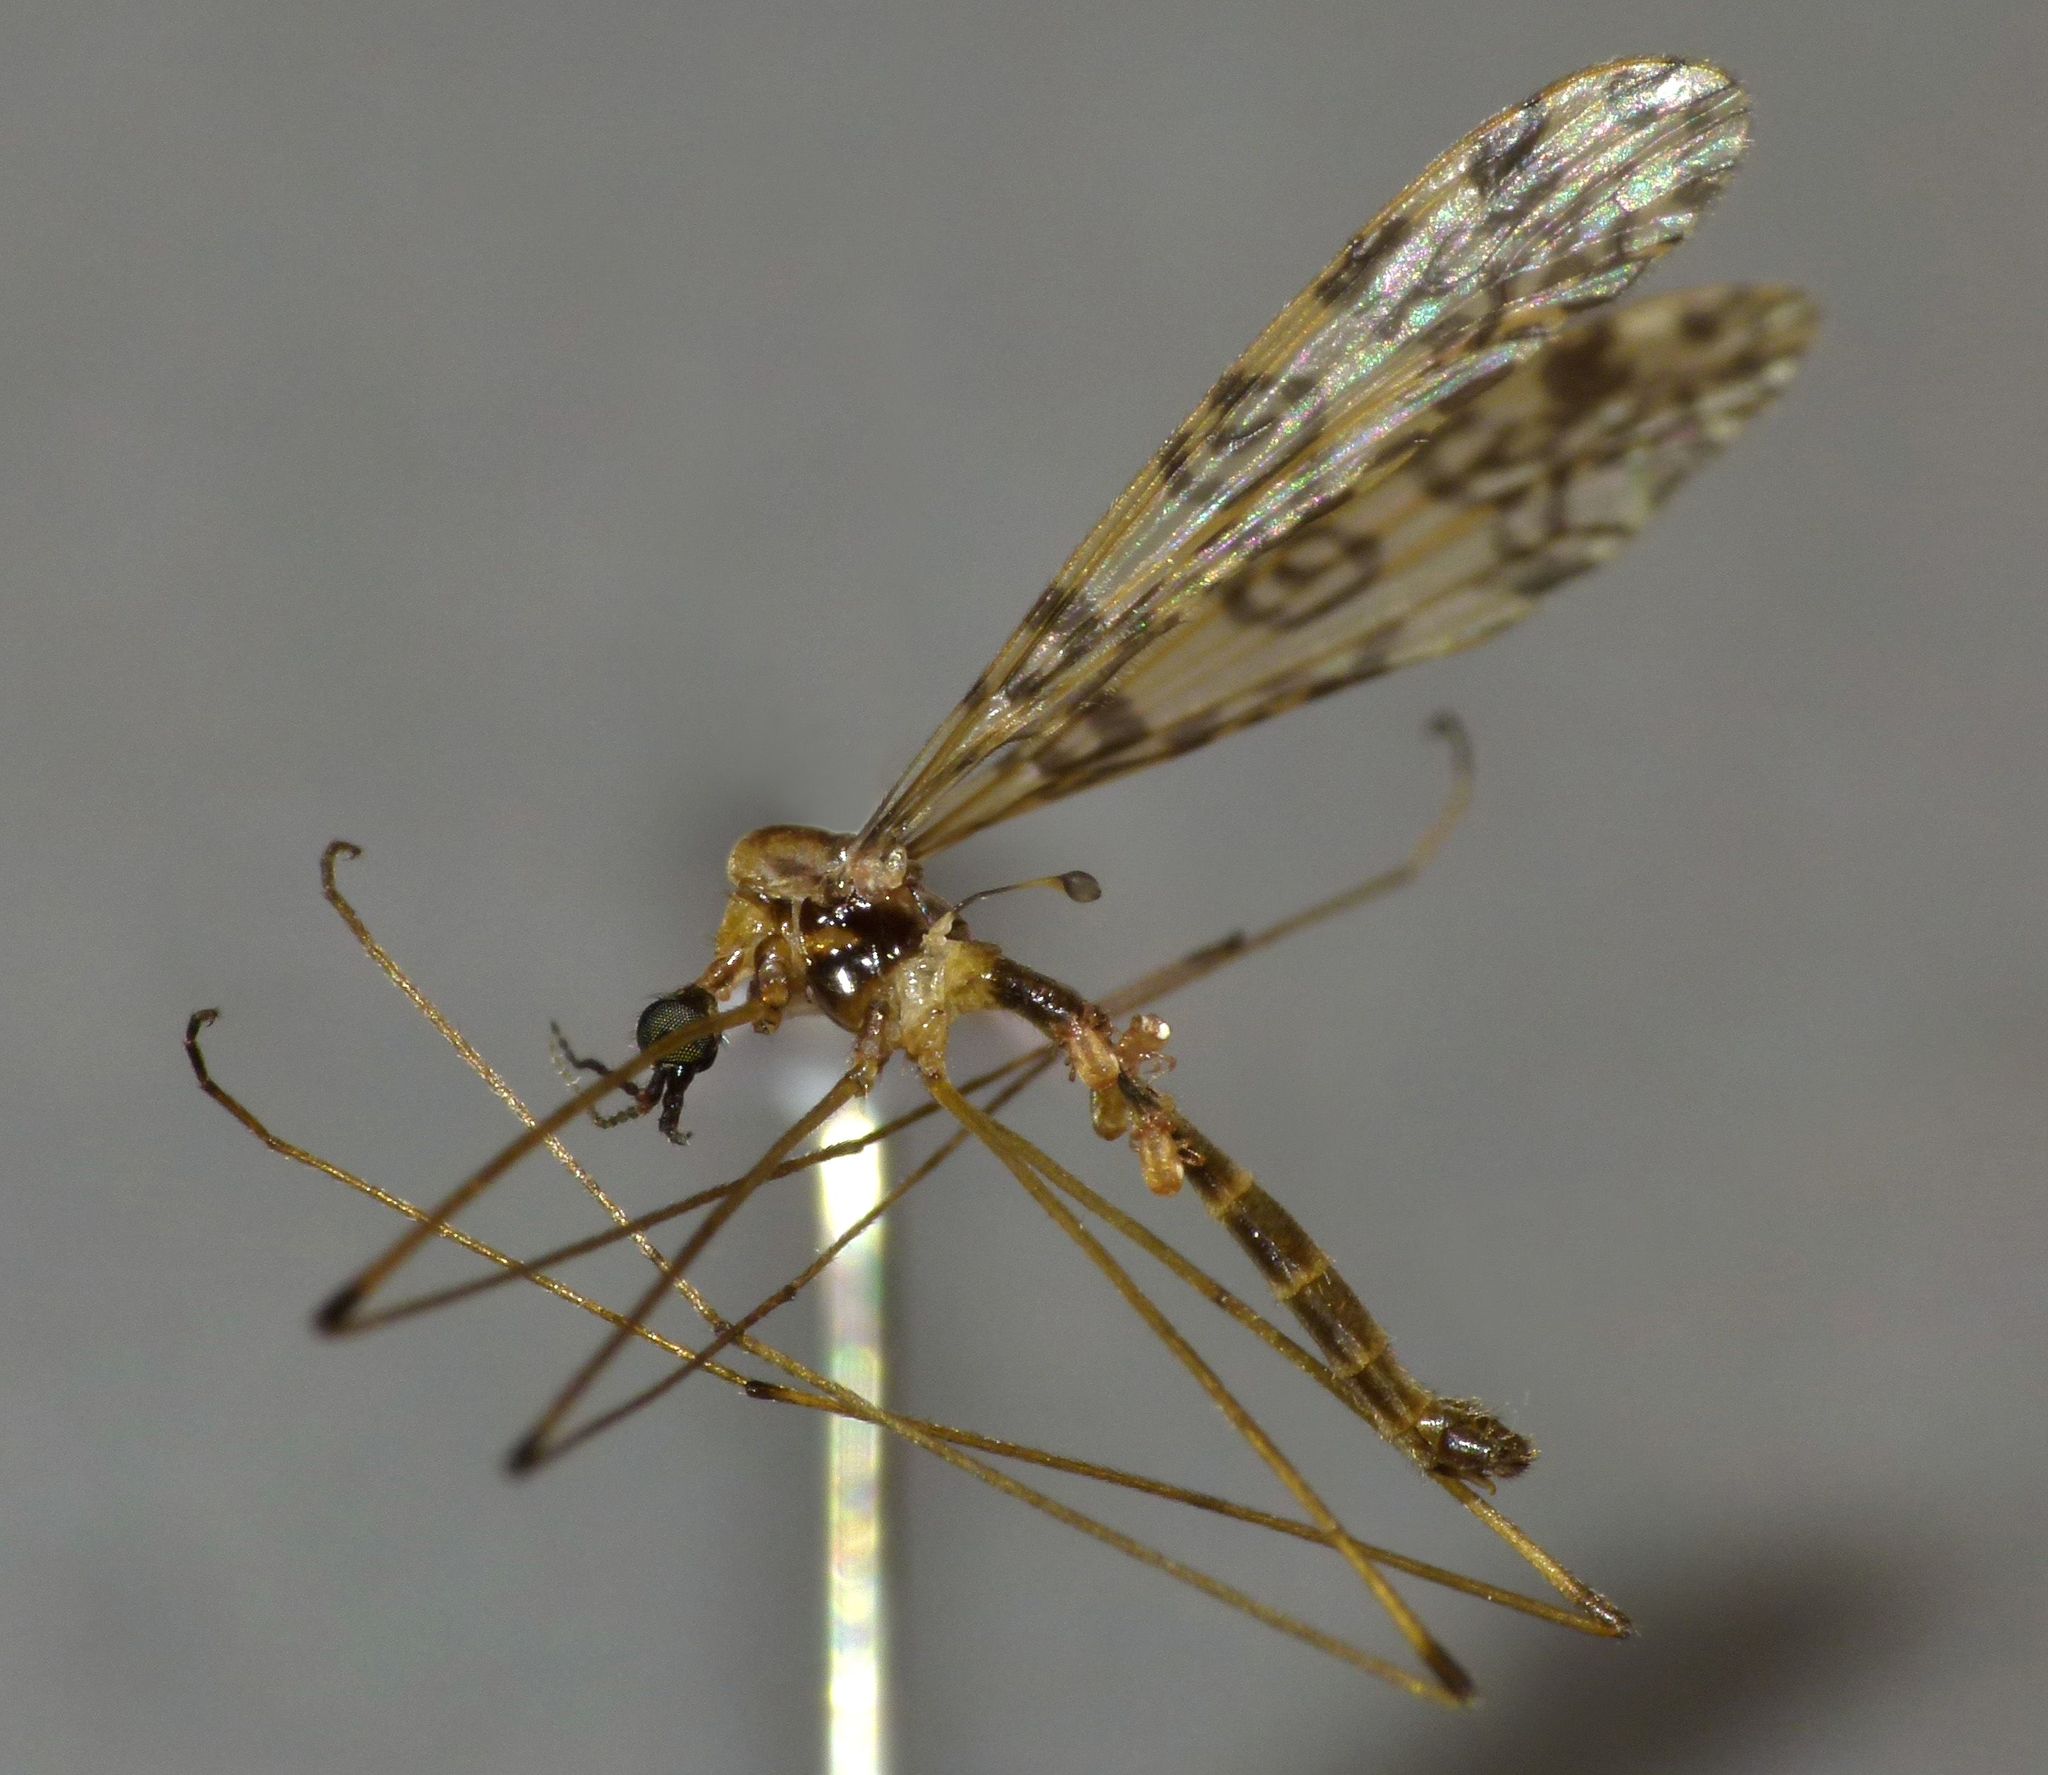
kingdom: Animalia
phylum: Arthropoda
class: Insecta
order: Diptera
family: Limoniidae
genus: Discobola
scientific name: Discobola gibberina
